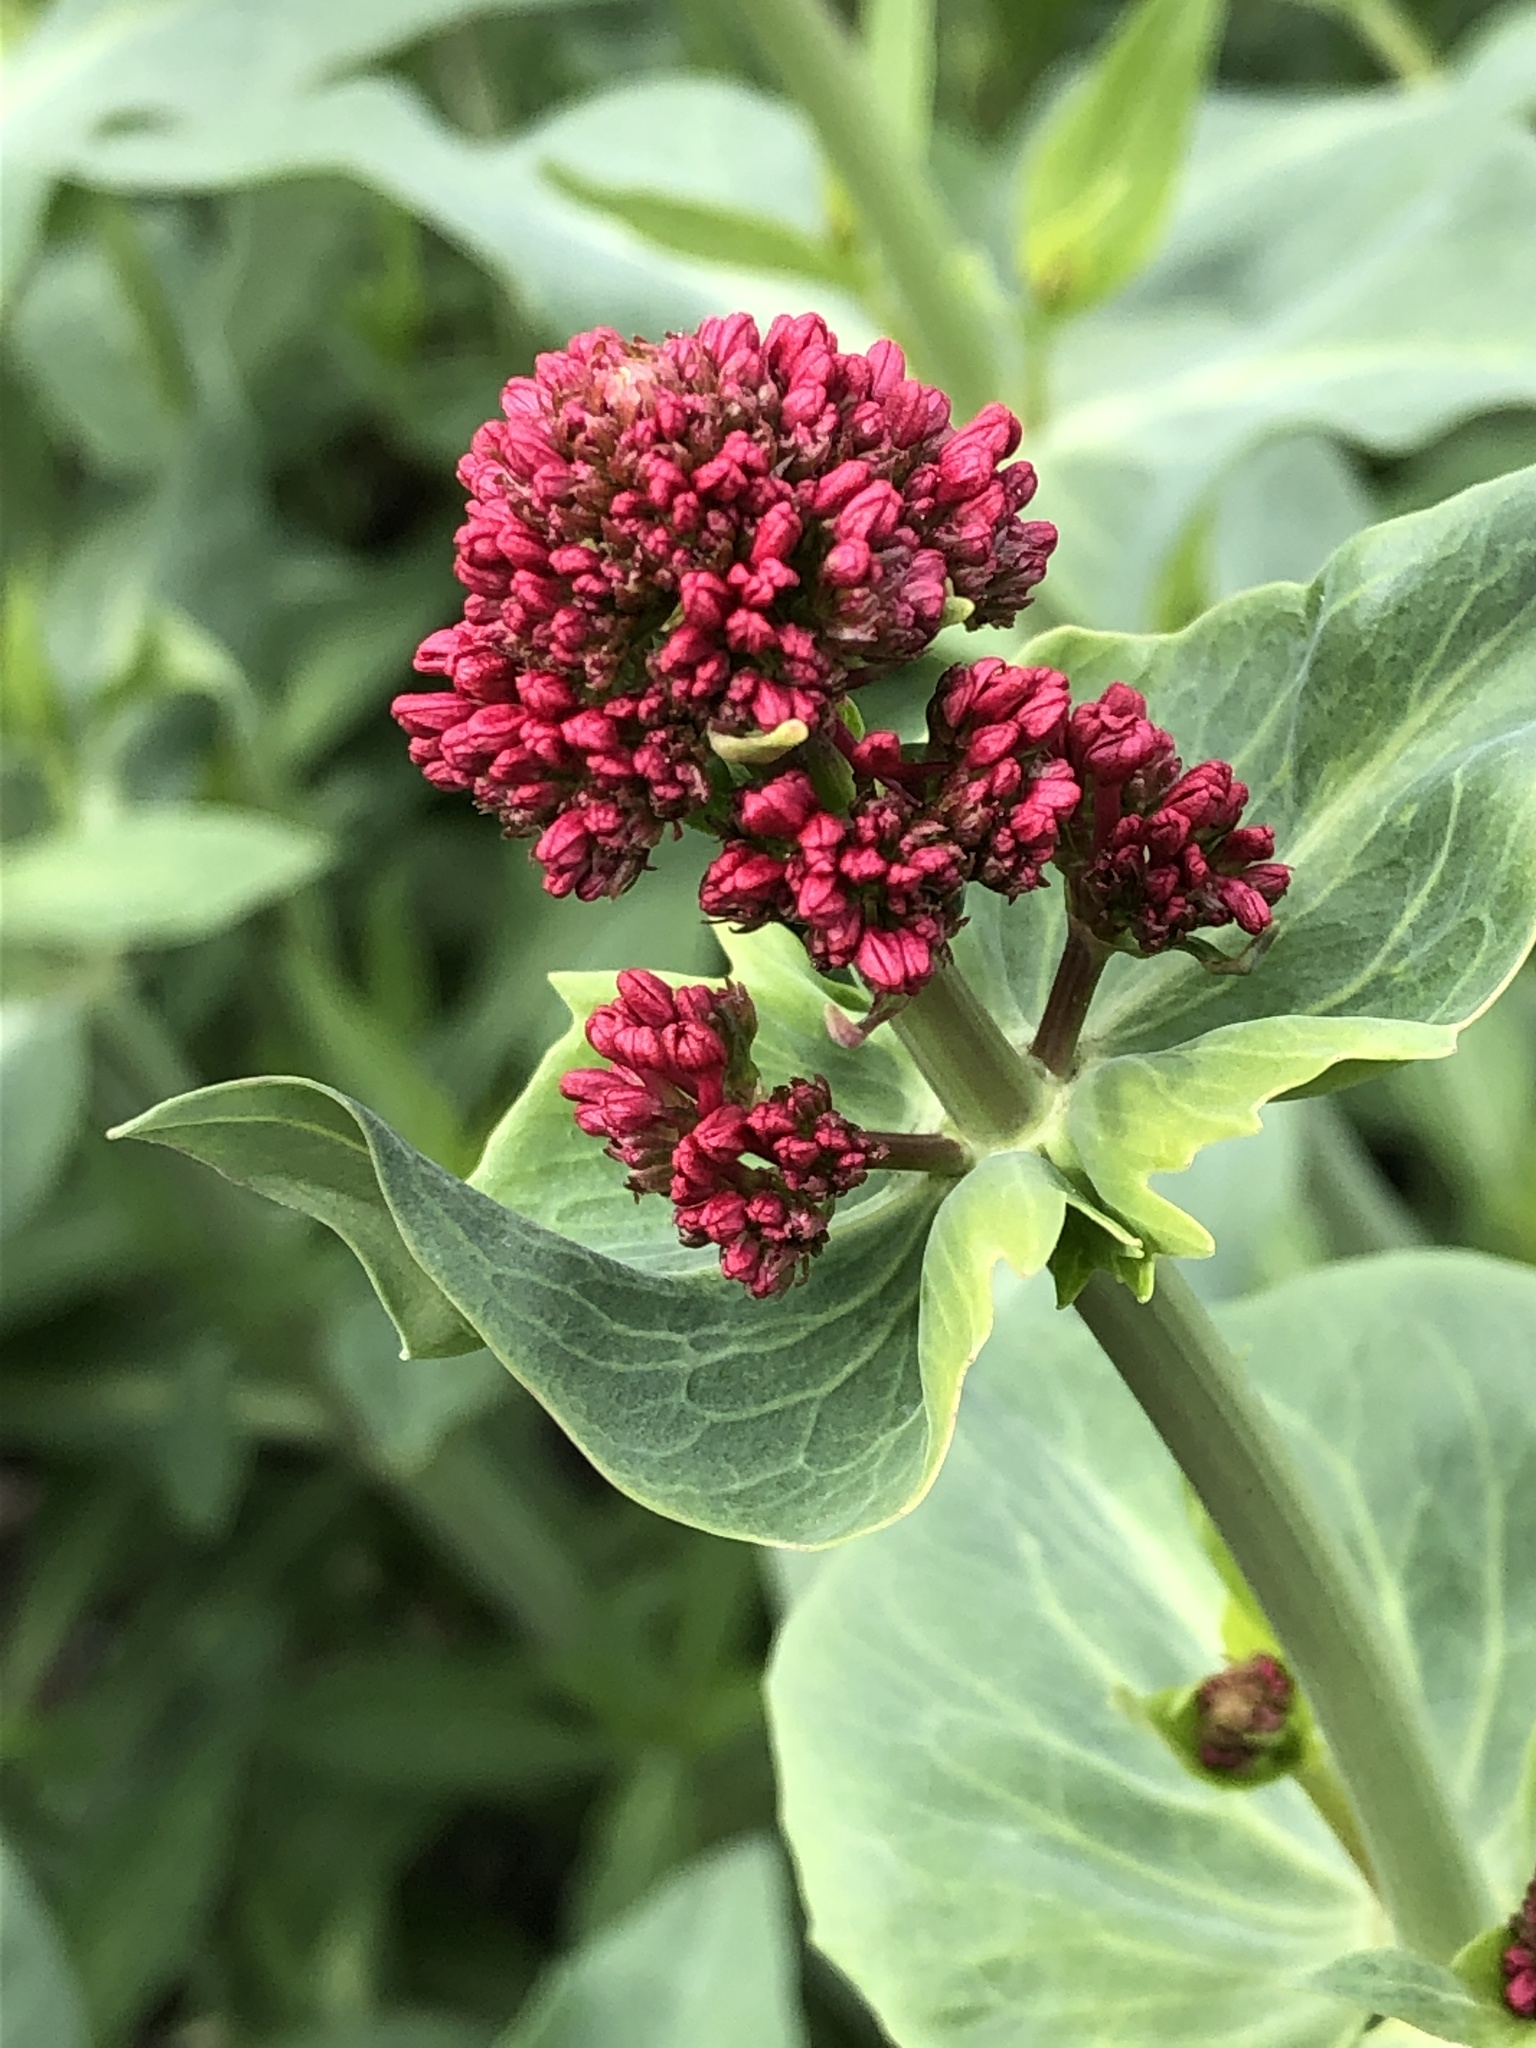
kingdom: Plantae
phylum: Tracheophyta
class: Magnoliopsida
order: Dipsacales
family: Caprifoliaceae
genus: Centranthus
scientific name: Centranthus ruber
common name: Red valerian
